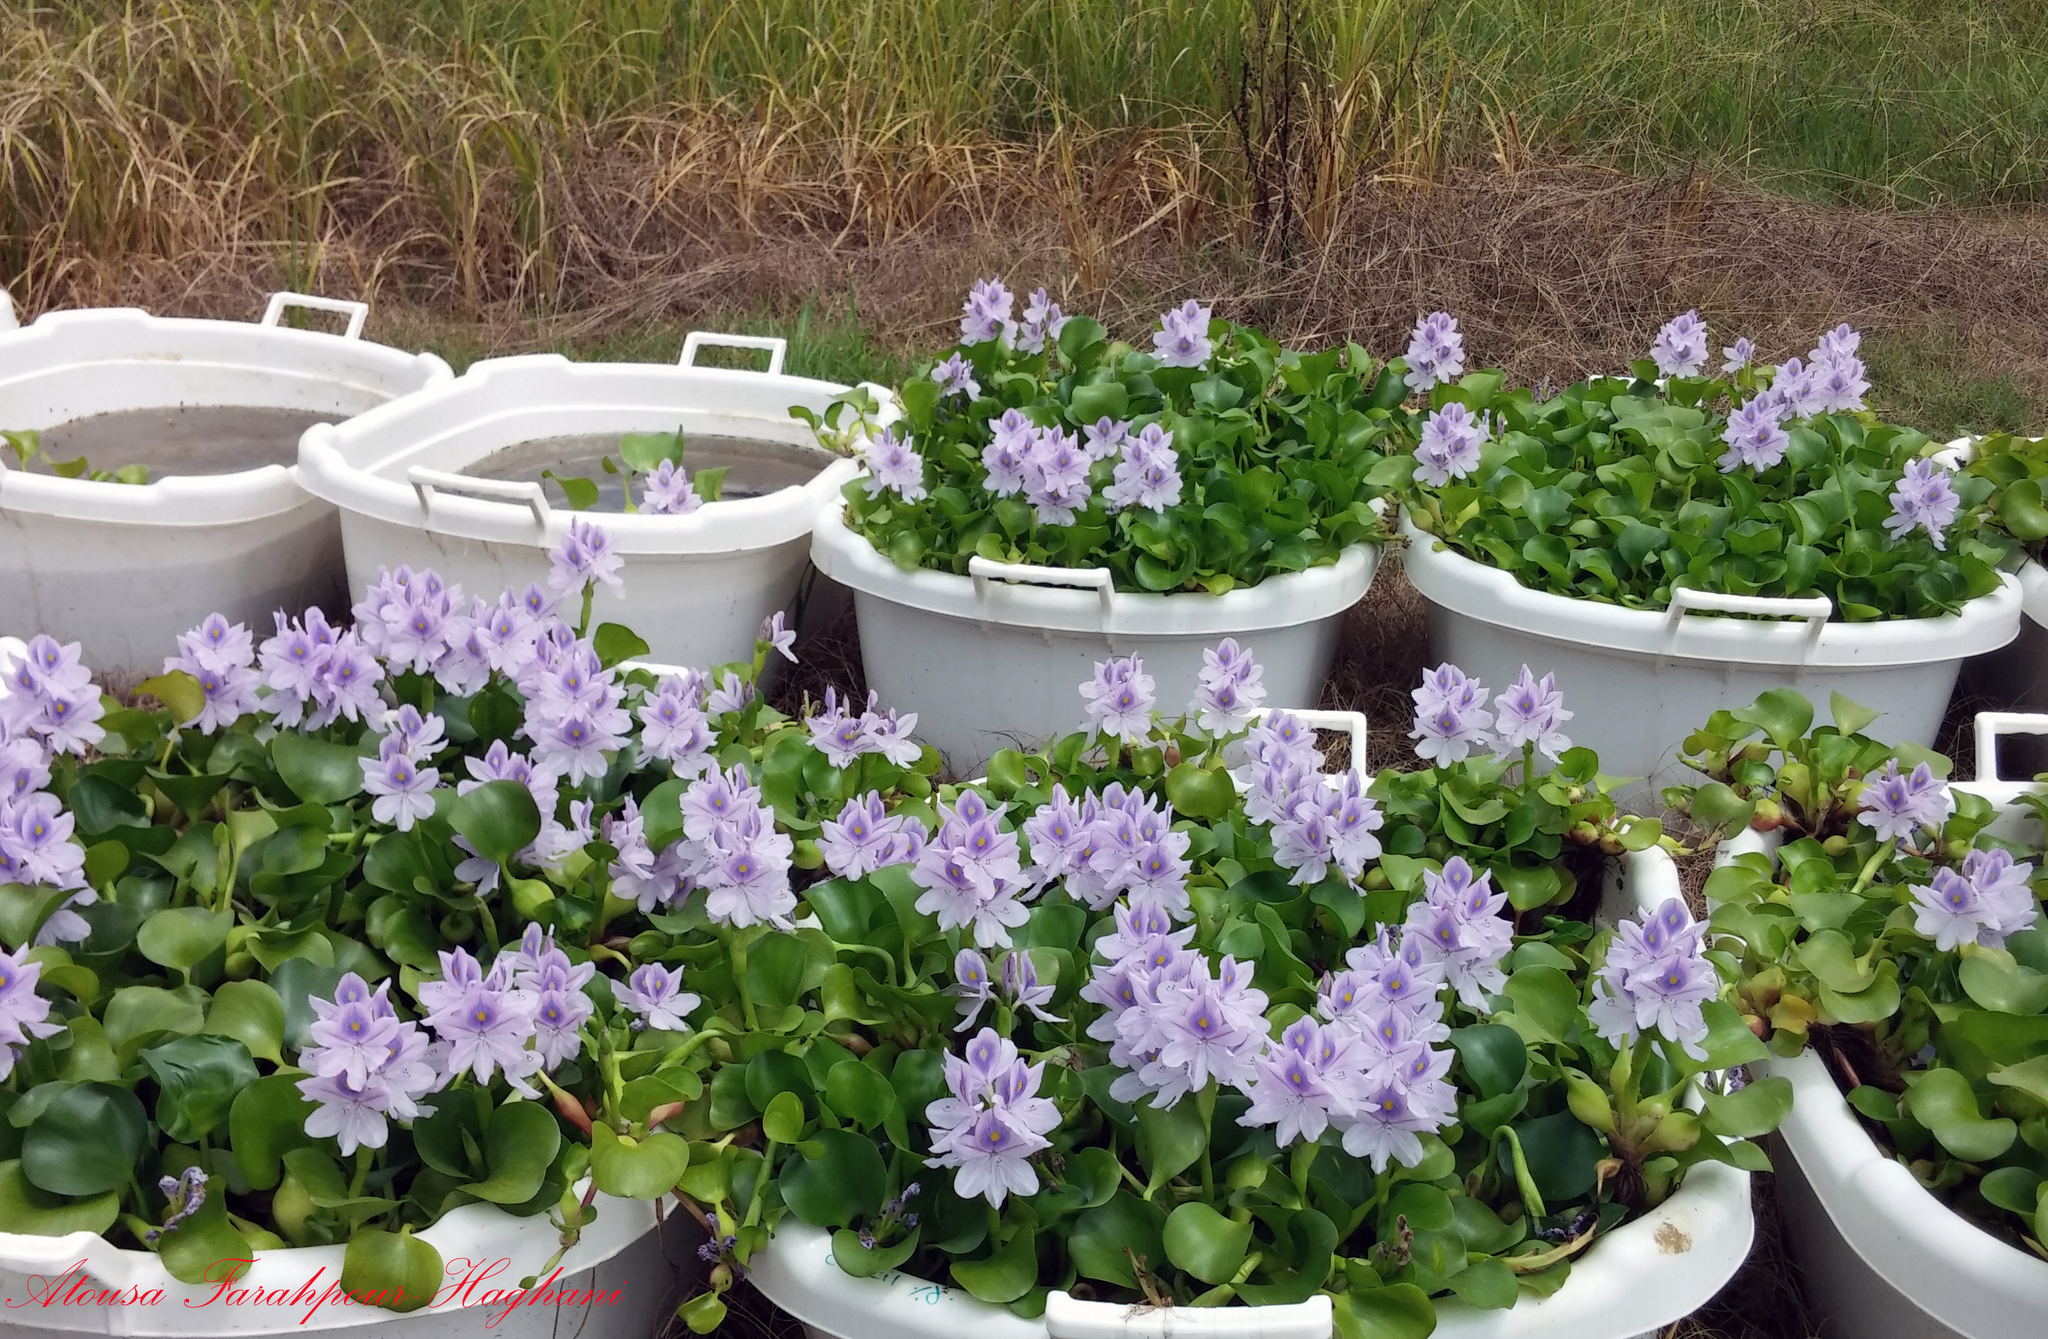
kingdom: Plantae
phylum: Tracheophyta
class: Liliopsida
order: Commelinales
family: Pontederiaceae
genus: Pontederia
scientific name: Pontederia crassipes
